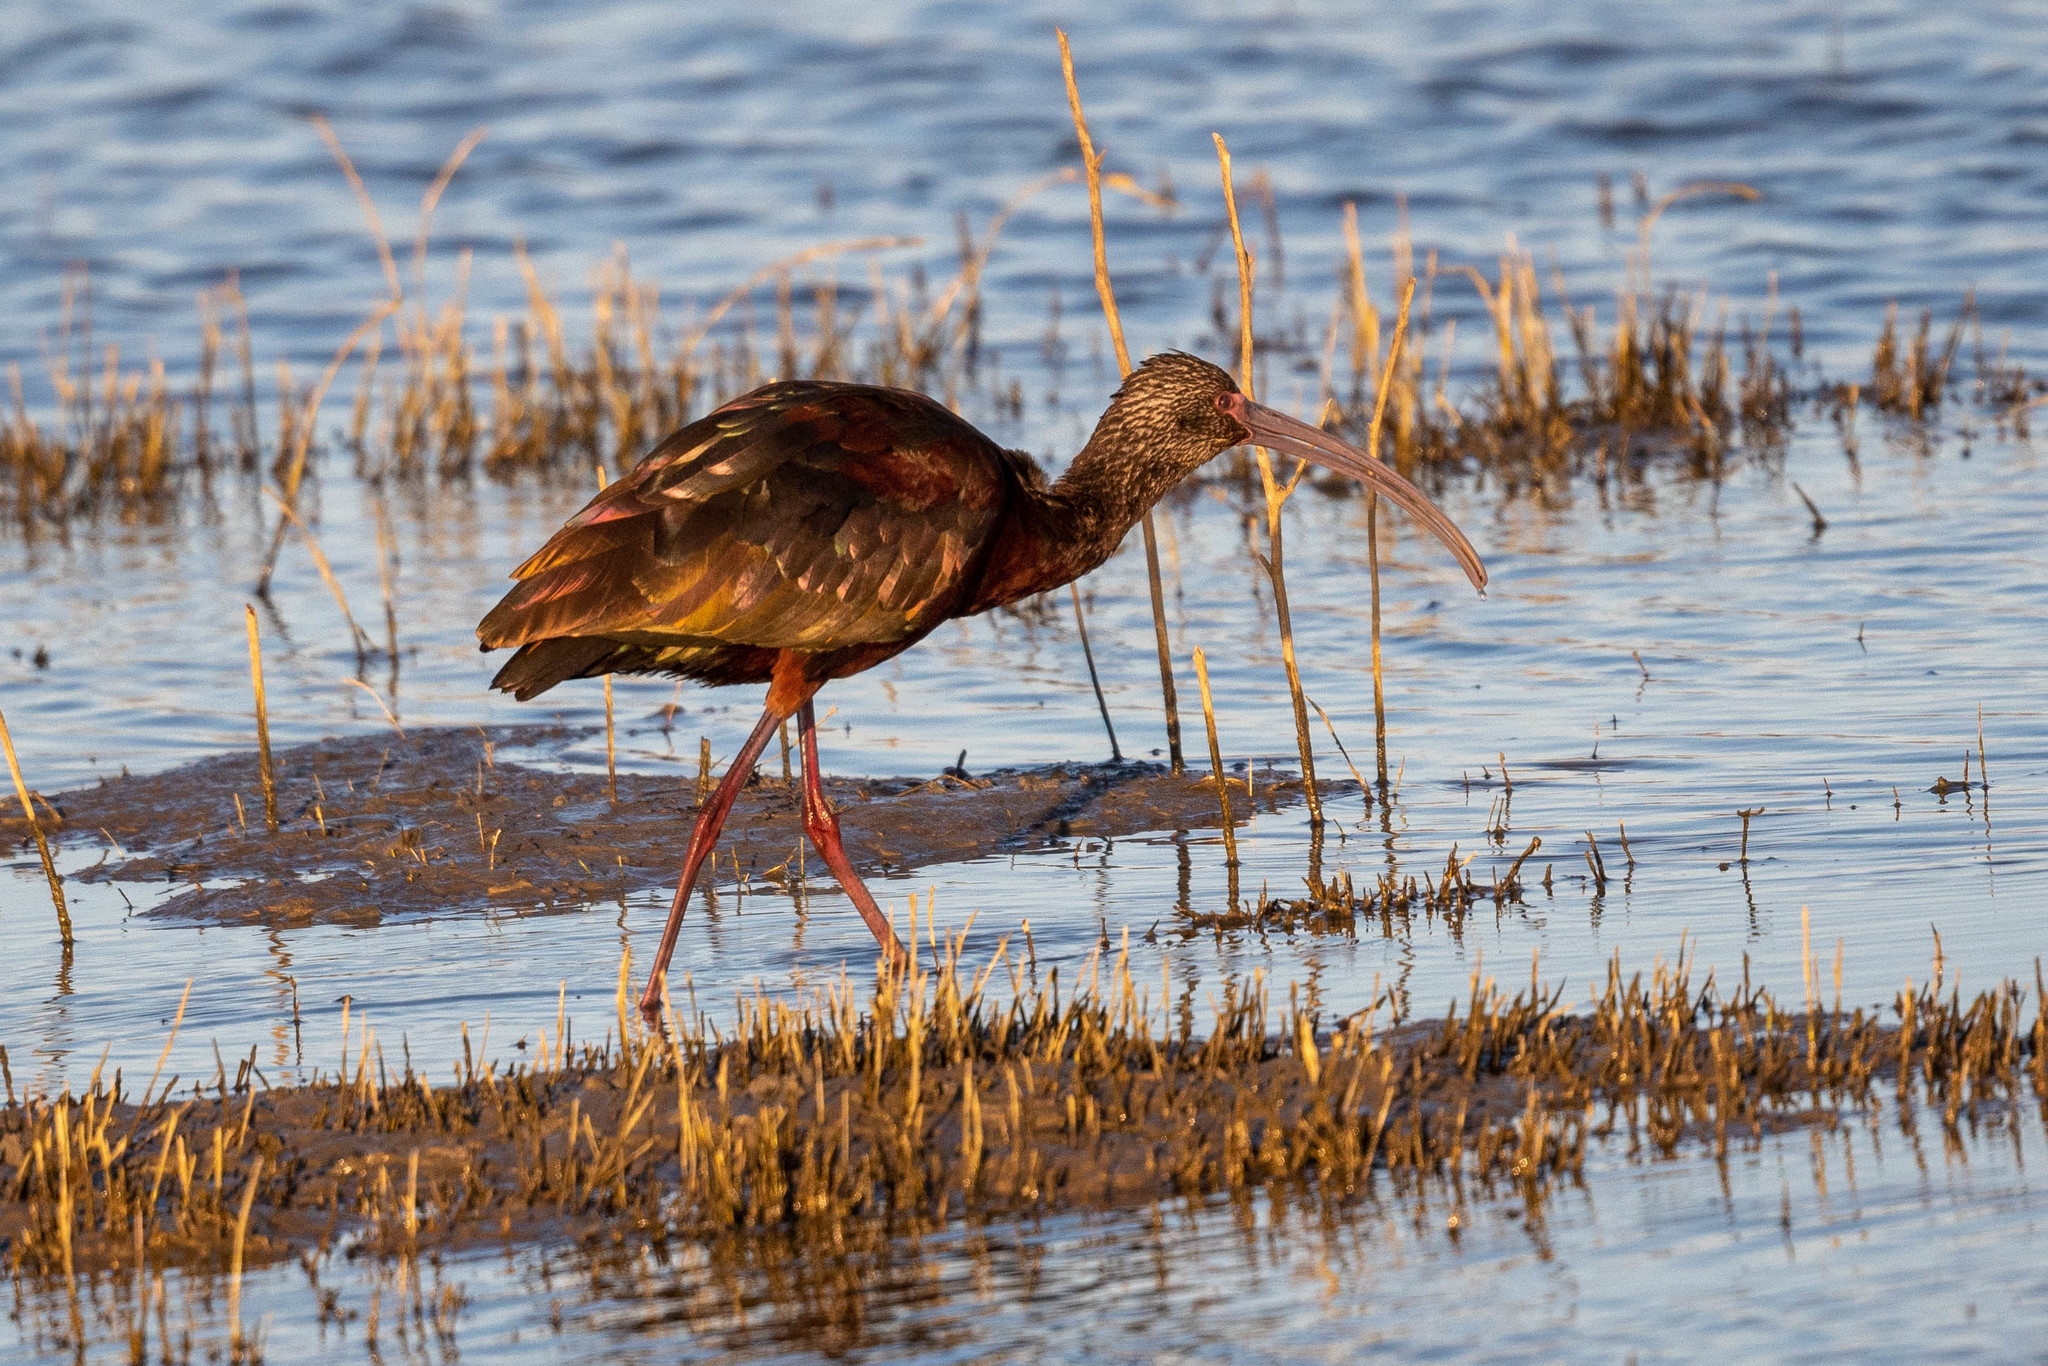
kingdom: Animalia
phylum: Chordata
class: Aves
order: Pelecaniformes
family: Threskiornithidae
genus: Plegadis
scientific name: Plegadis chihi
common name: White-faced ibis
